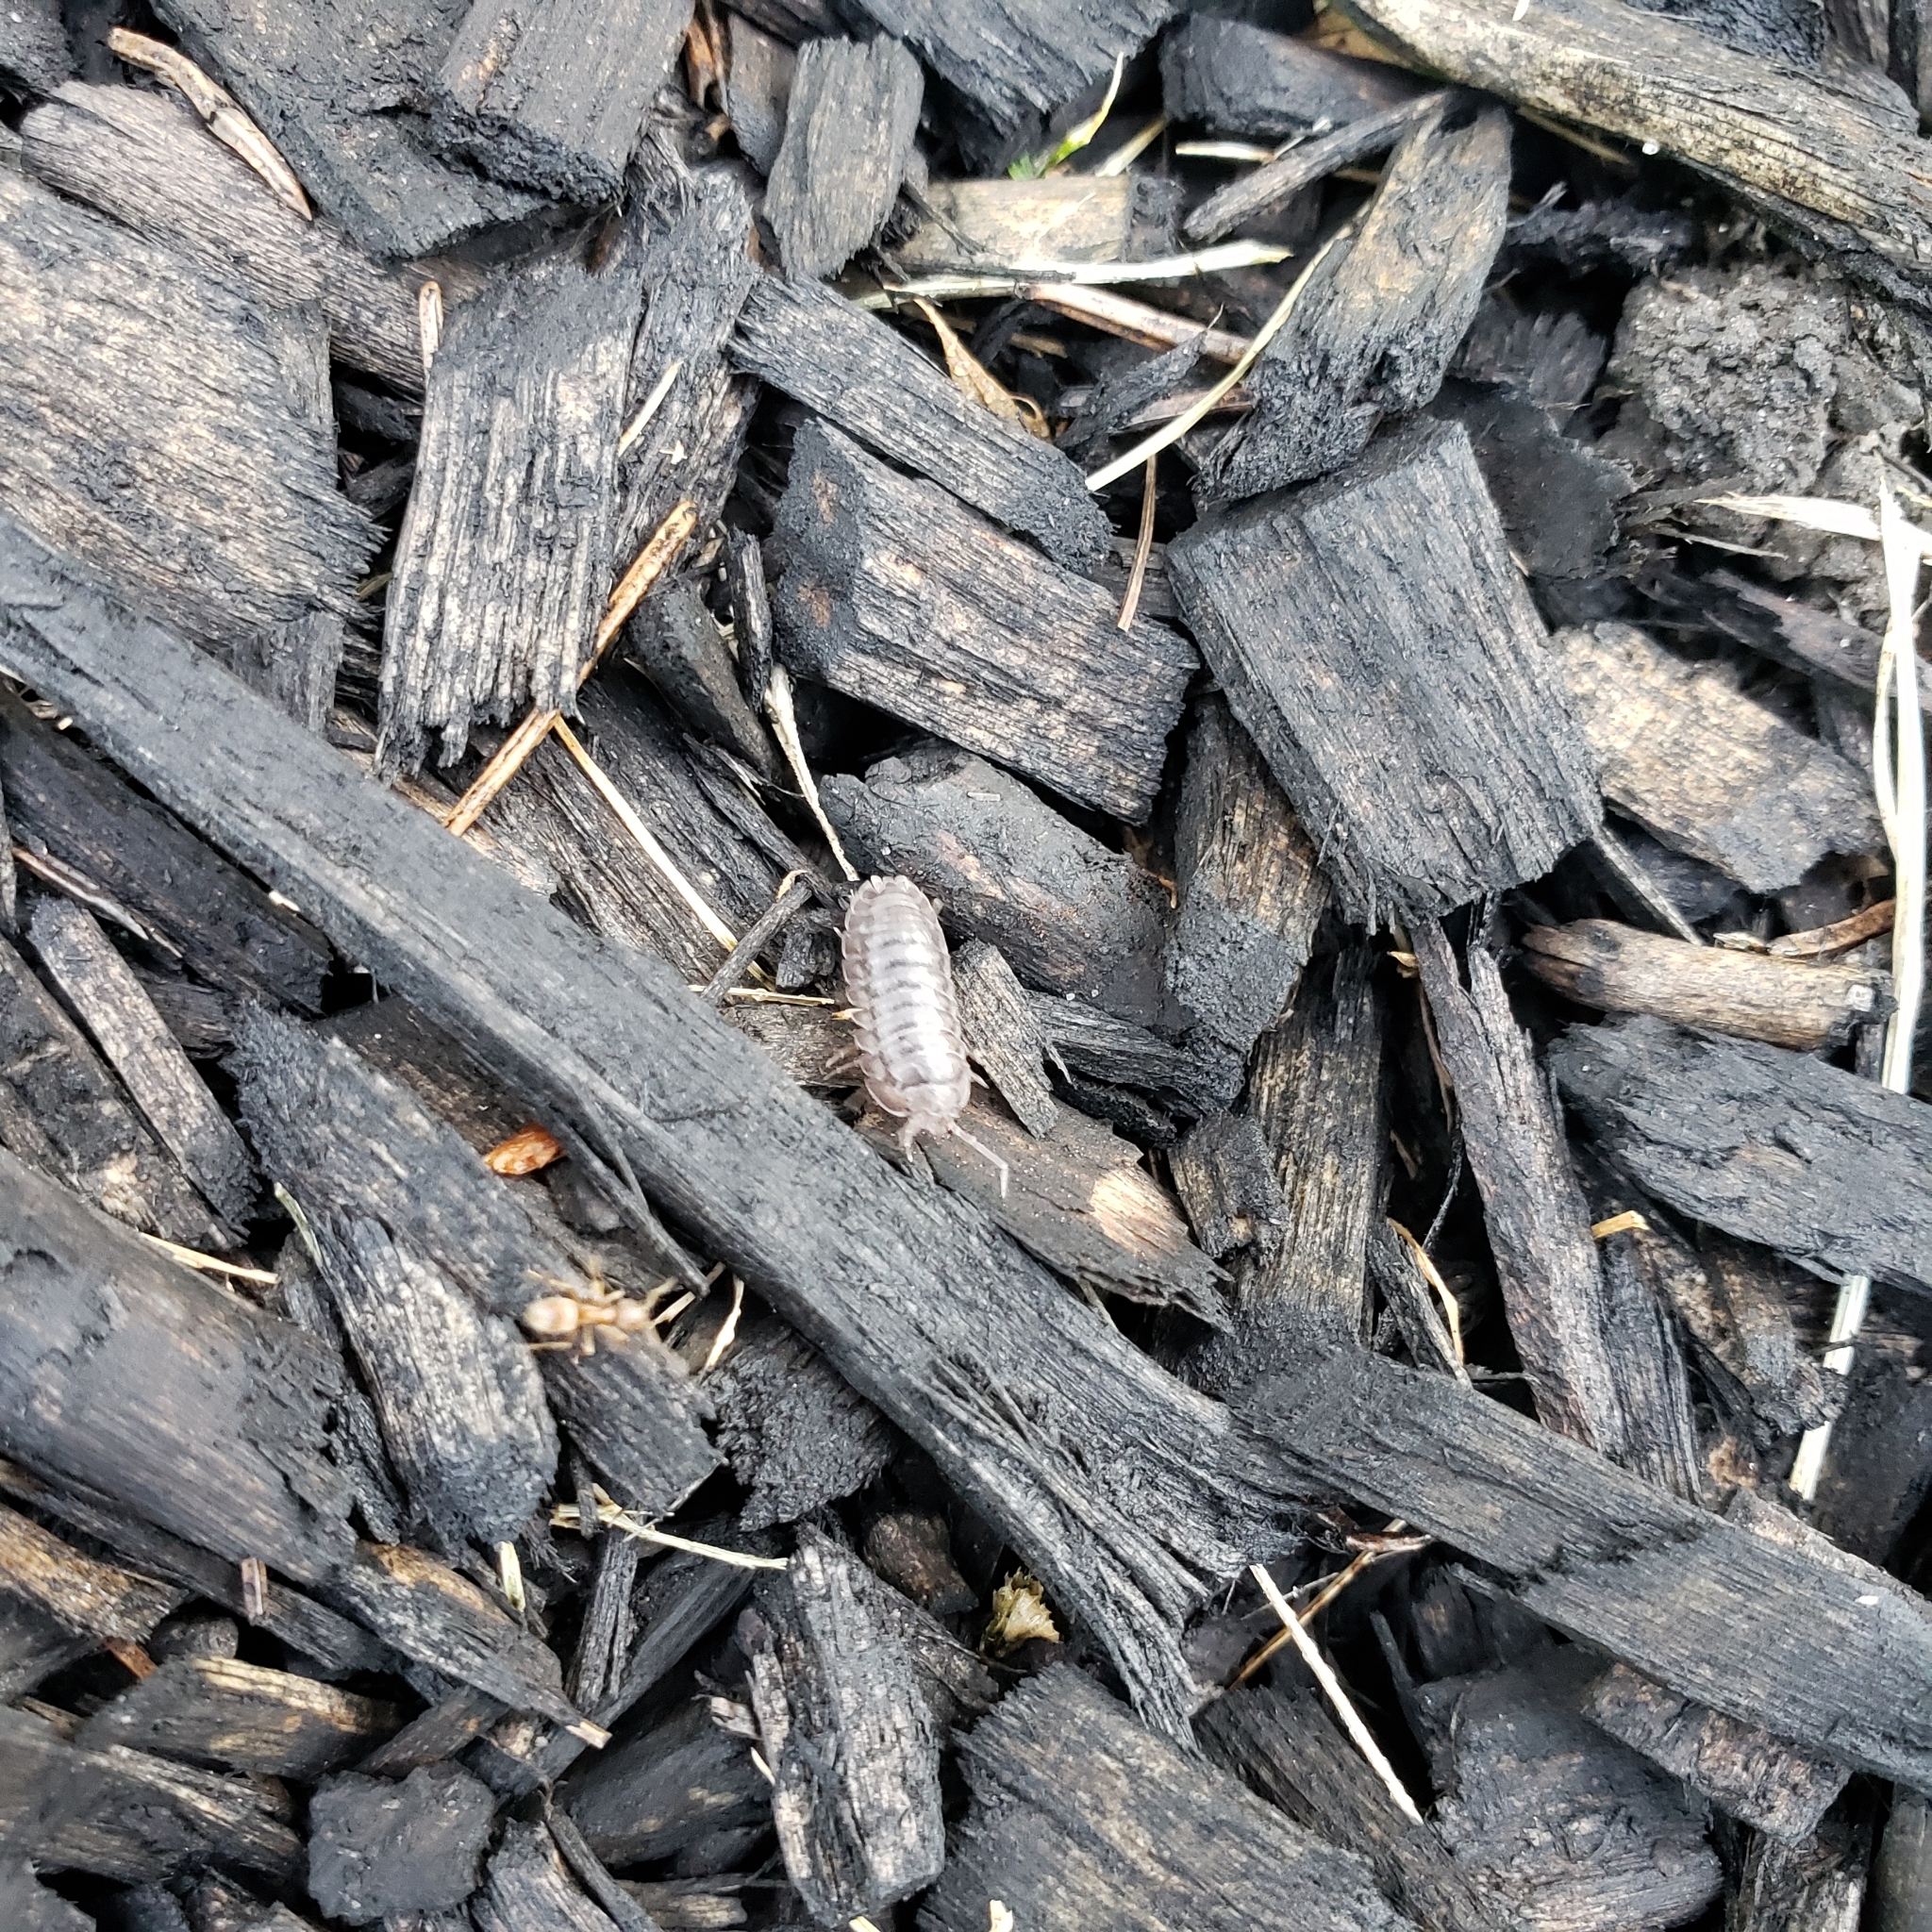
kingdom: Animalia
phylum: Arthropoda
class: Malacostraca
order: Isopoda
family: Armadillidiidae
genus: Armadillidium
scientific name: Armadillidium nasatum
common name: Isopod
